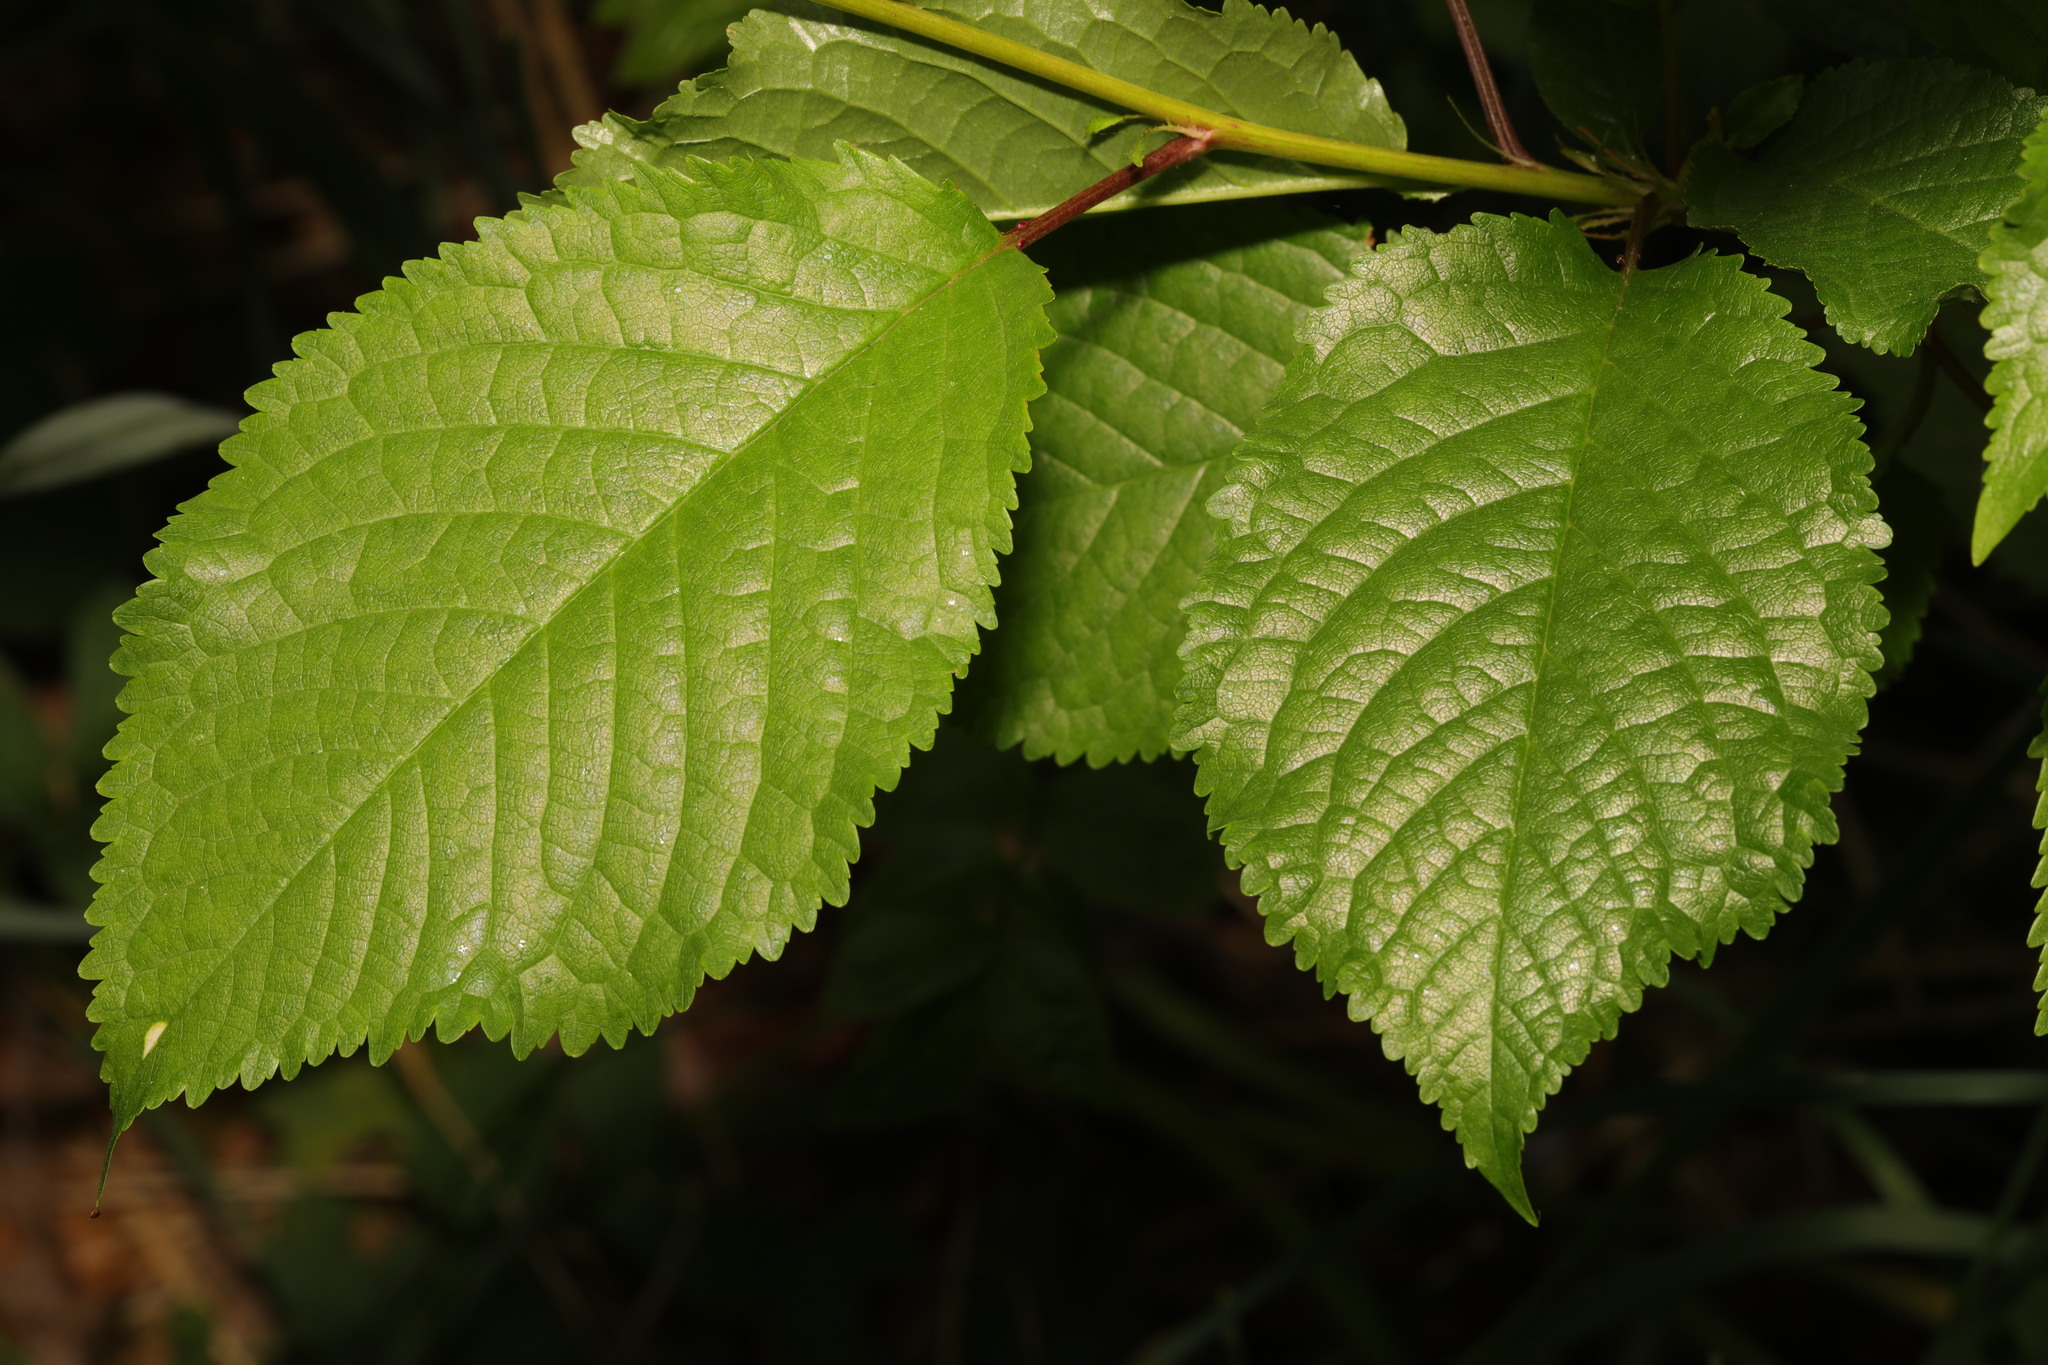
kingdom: Plantae
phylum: Tracheophyta
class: Magnoliopsida
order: Rosales
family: Rosaceae
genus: Prunus
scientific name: Prunus avium
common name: Sweet cherry
